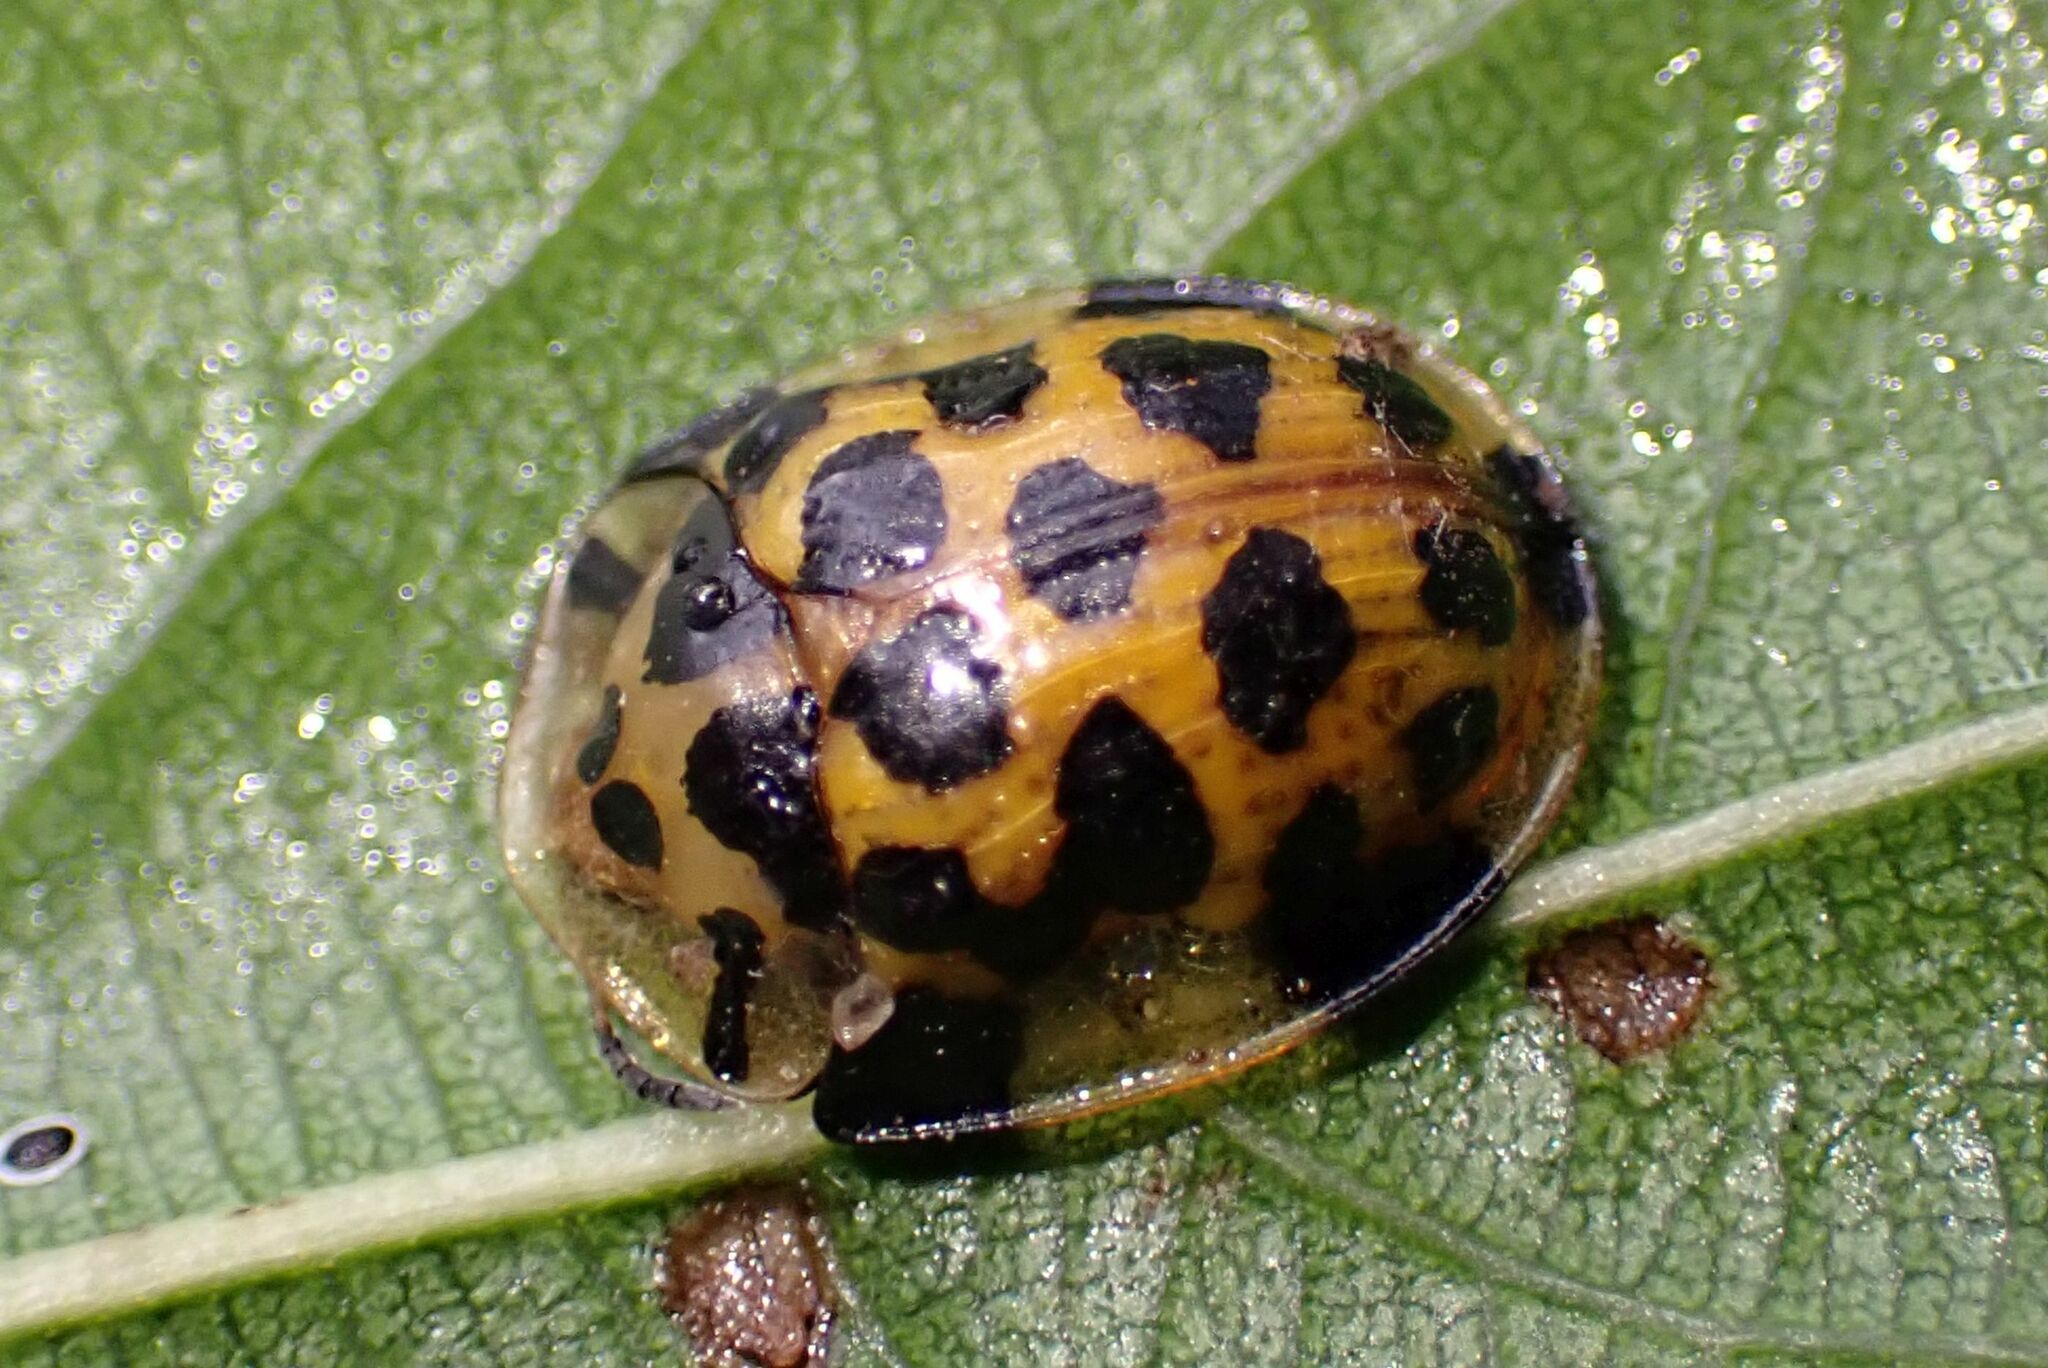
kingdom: Animalia
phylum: Arthropoda
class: Insecta
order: Coleoptera
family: Chrysomelidae
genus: Aethiopocassis
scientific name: Aethiopocassis vigintimaculata
